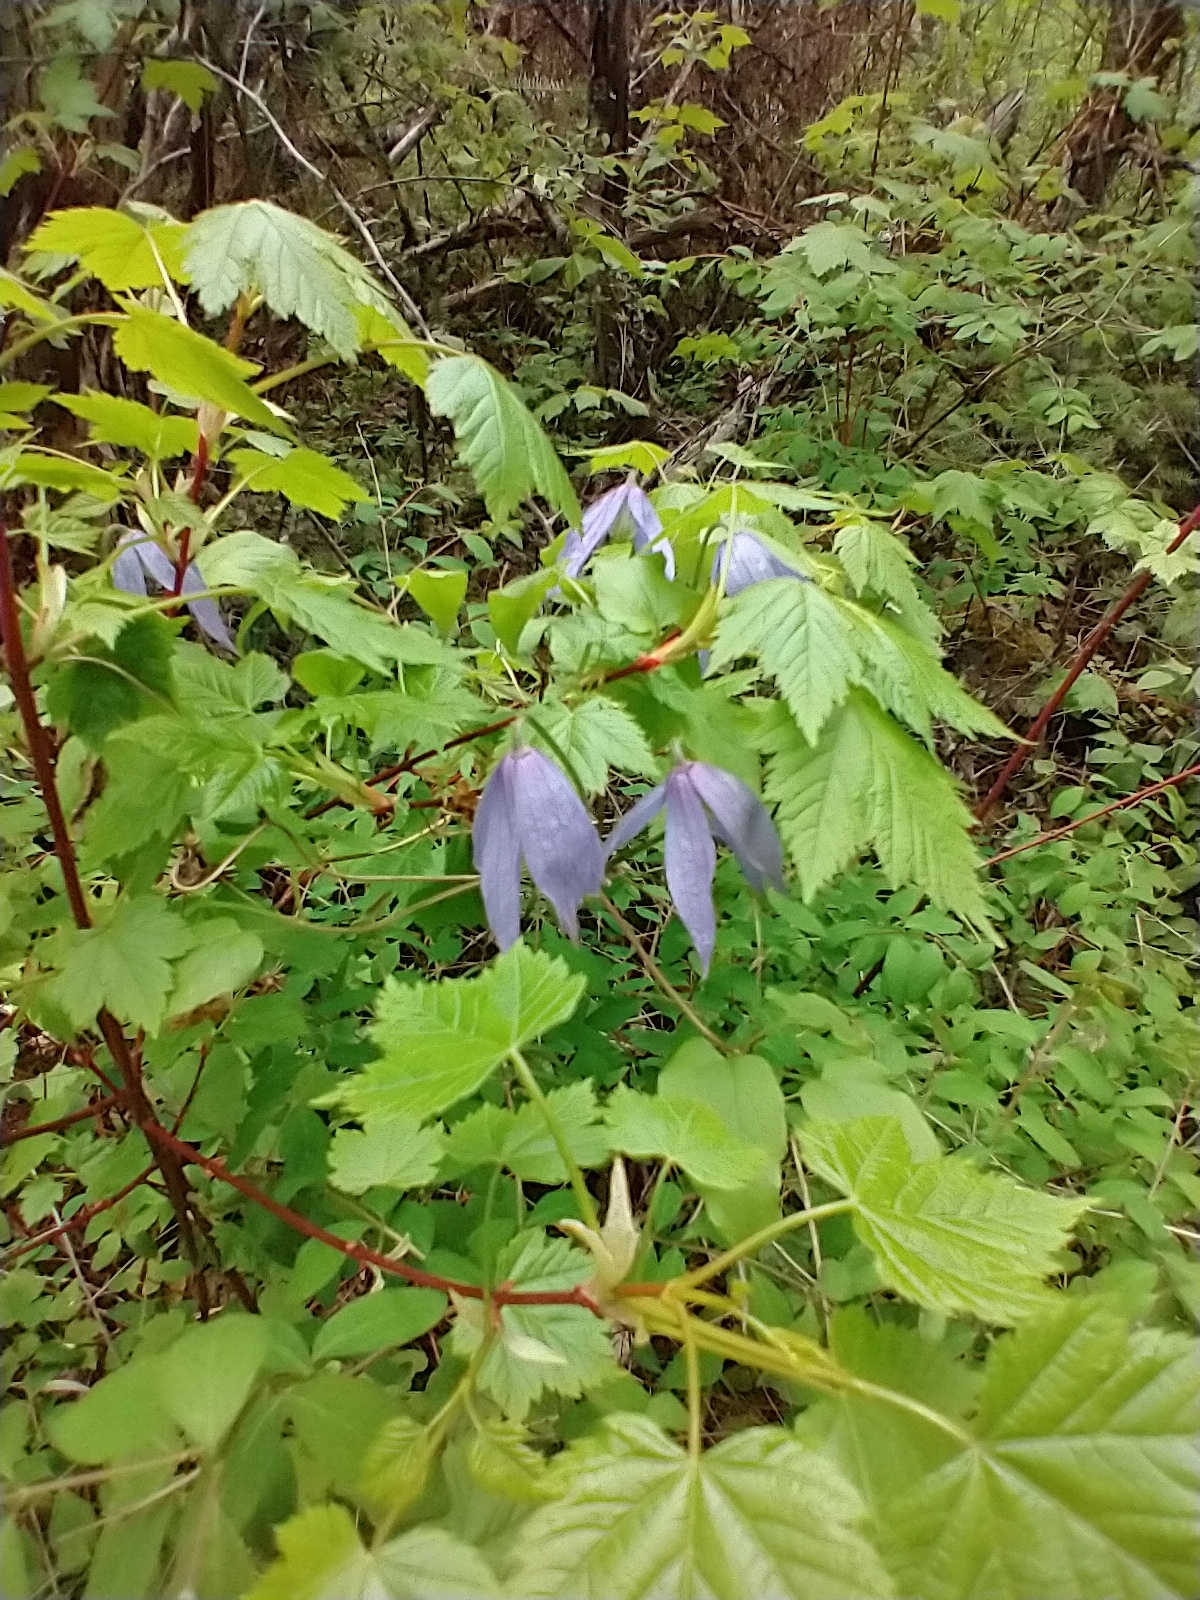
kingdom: Plantae
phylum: Tracheophyta
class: Magnoliopsida
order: Ranunculales
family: Ranunculaceae
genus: Clematis
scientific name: Clematis occidentalis
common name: Purple clematis
